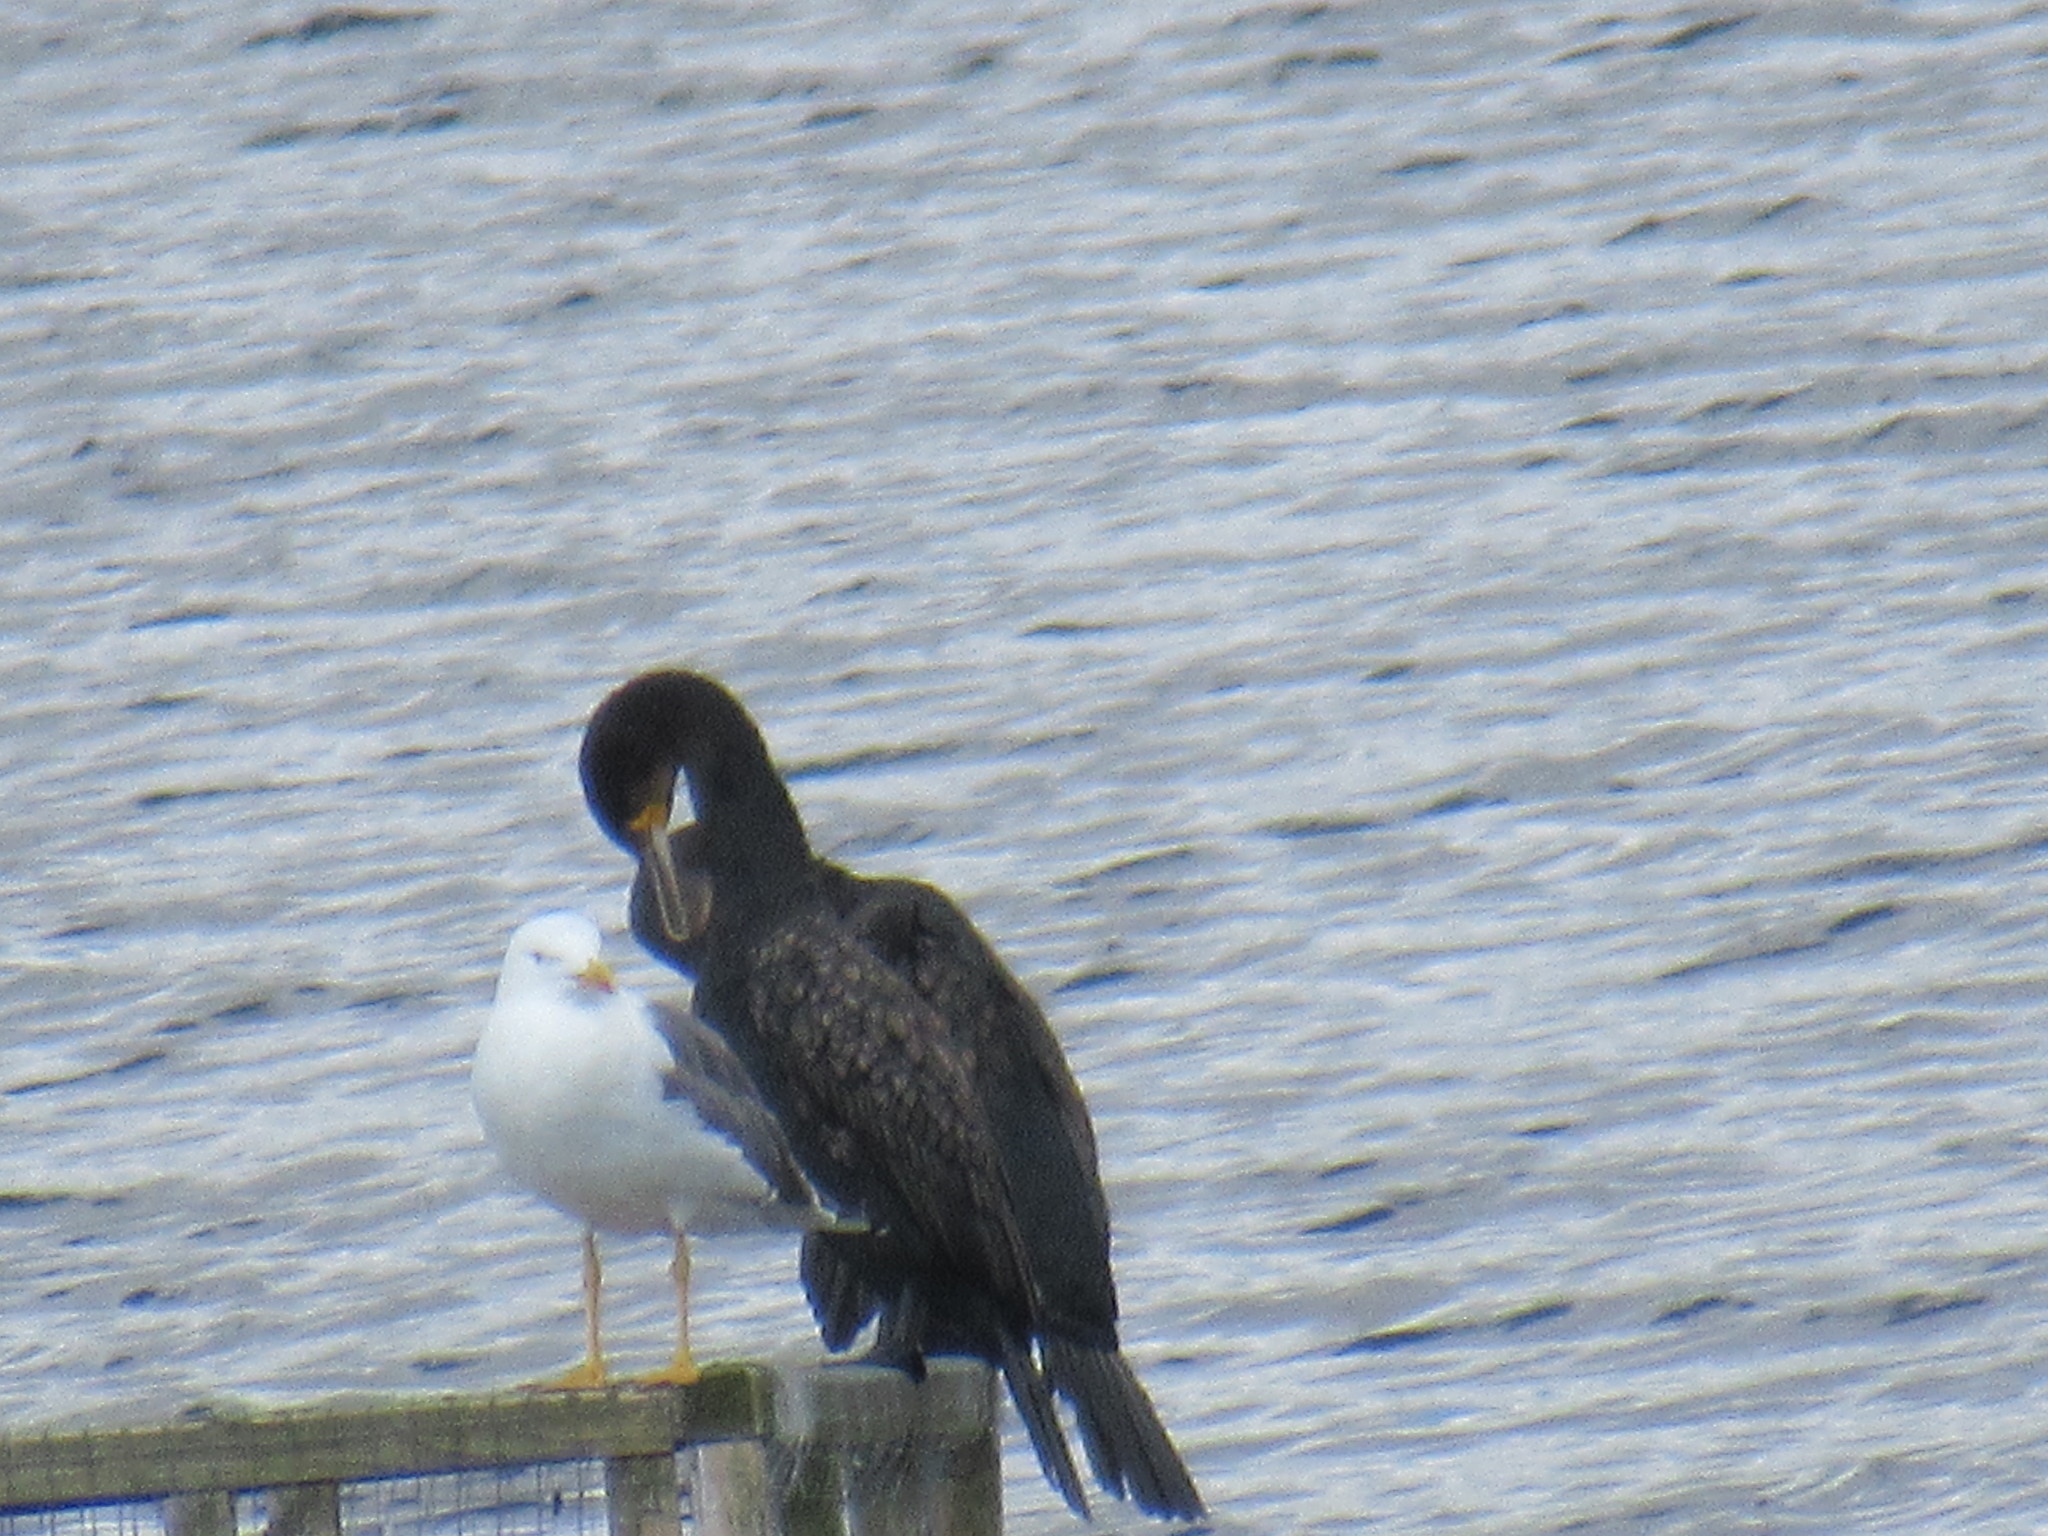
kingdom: Animalia
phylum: Chordata
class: Aves
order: Charadriiformes
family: Laridae
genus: Larus
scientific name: Larus fuscus
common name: Lesser black-backed gull
